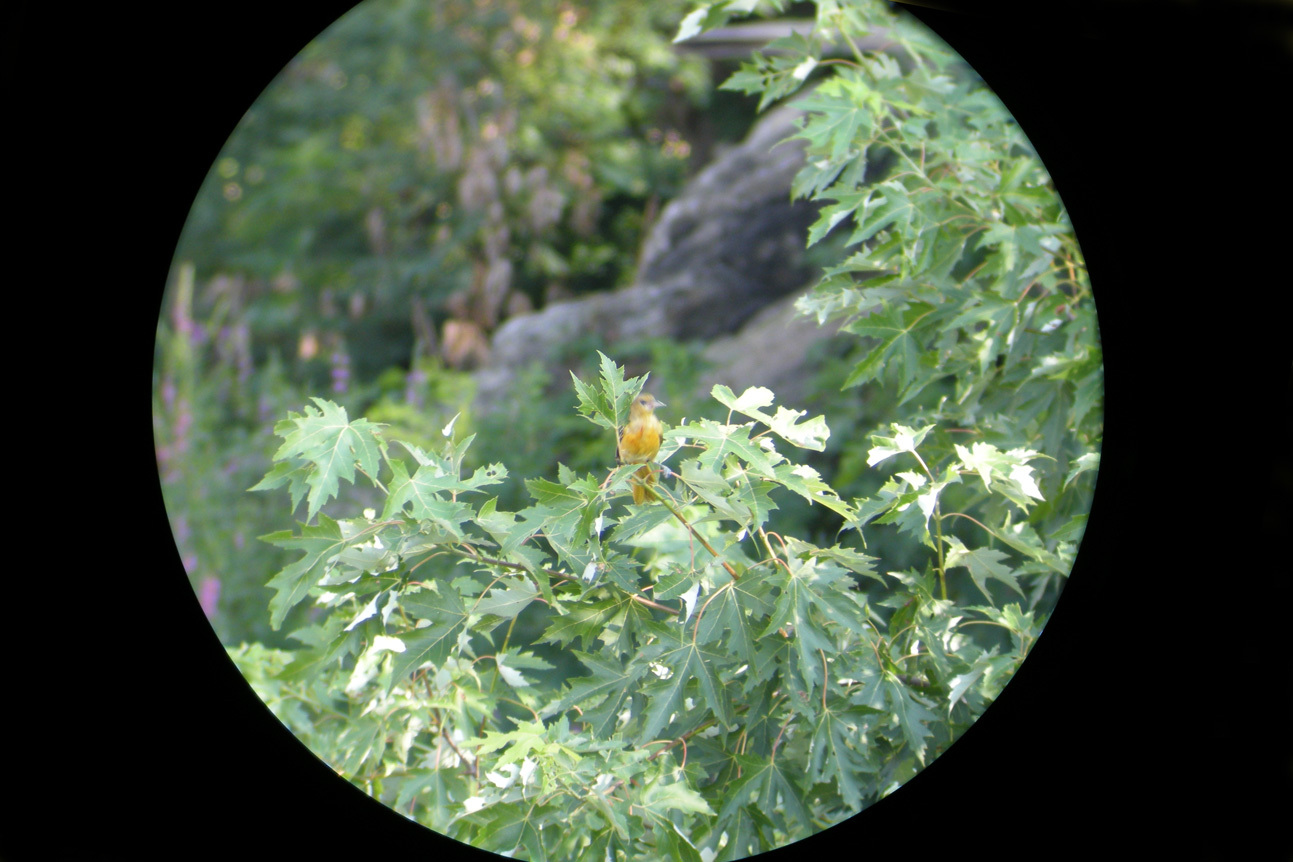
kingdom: Animalia
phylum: Chordata
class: Aves
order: Passeriformes
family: Icteridae
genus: Icterus
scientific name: Icterus galbula
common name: Baltimore oriole
